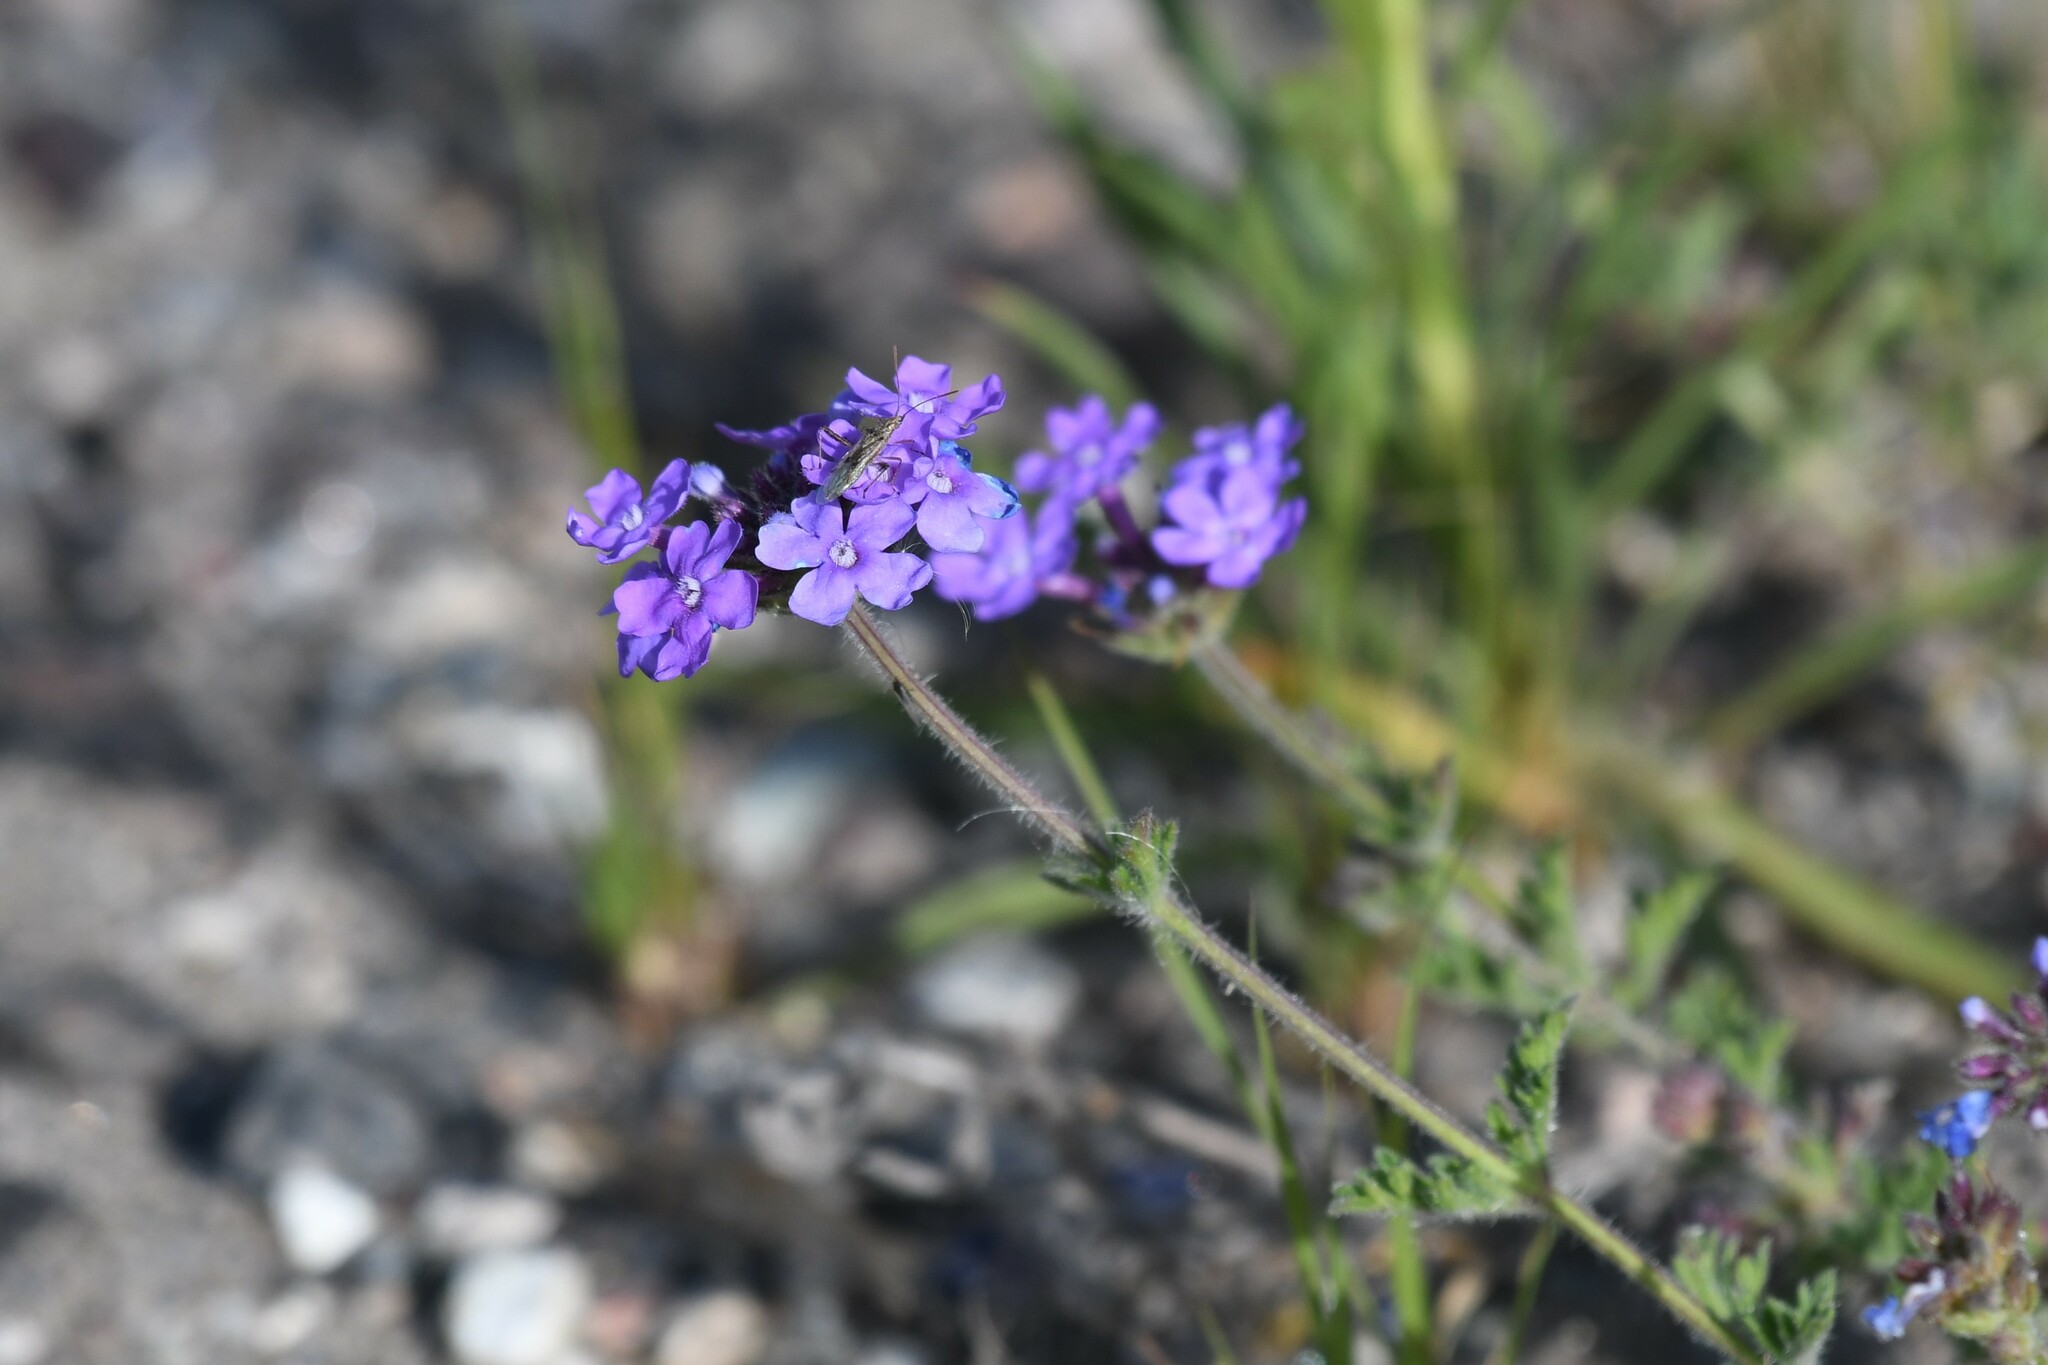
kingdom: Plantae
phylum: Tracheophyta
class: Magnoliopsida
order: Lamiales
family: Verbenaceae
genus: Verbena
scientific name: Verbena venturii
